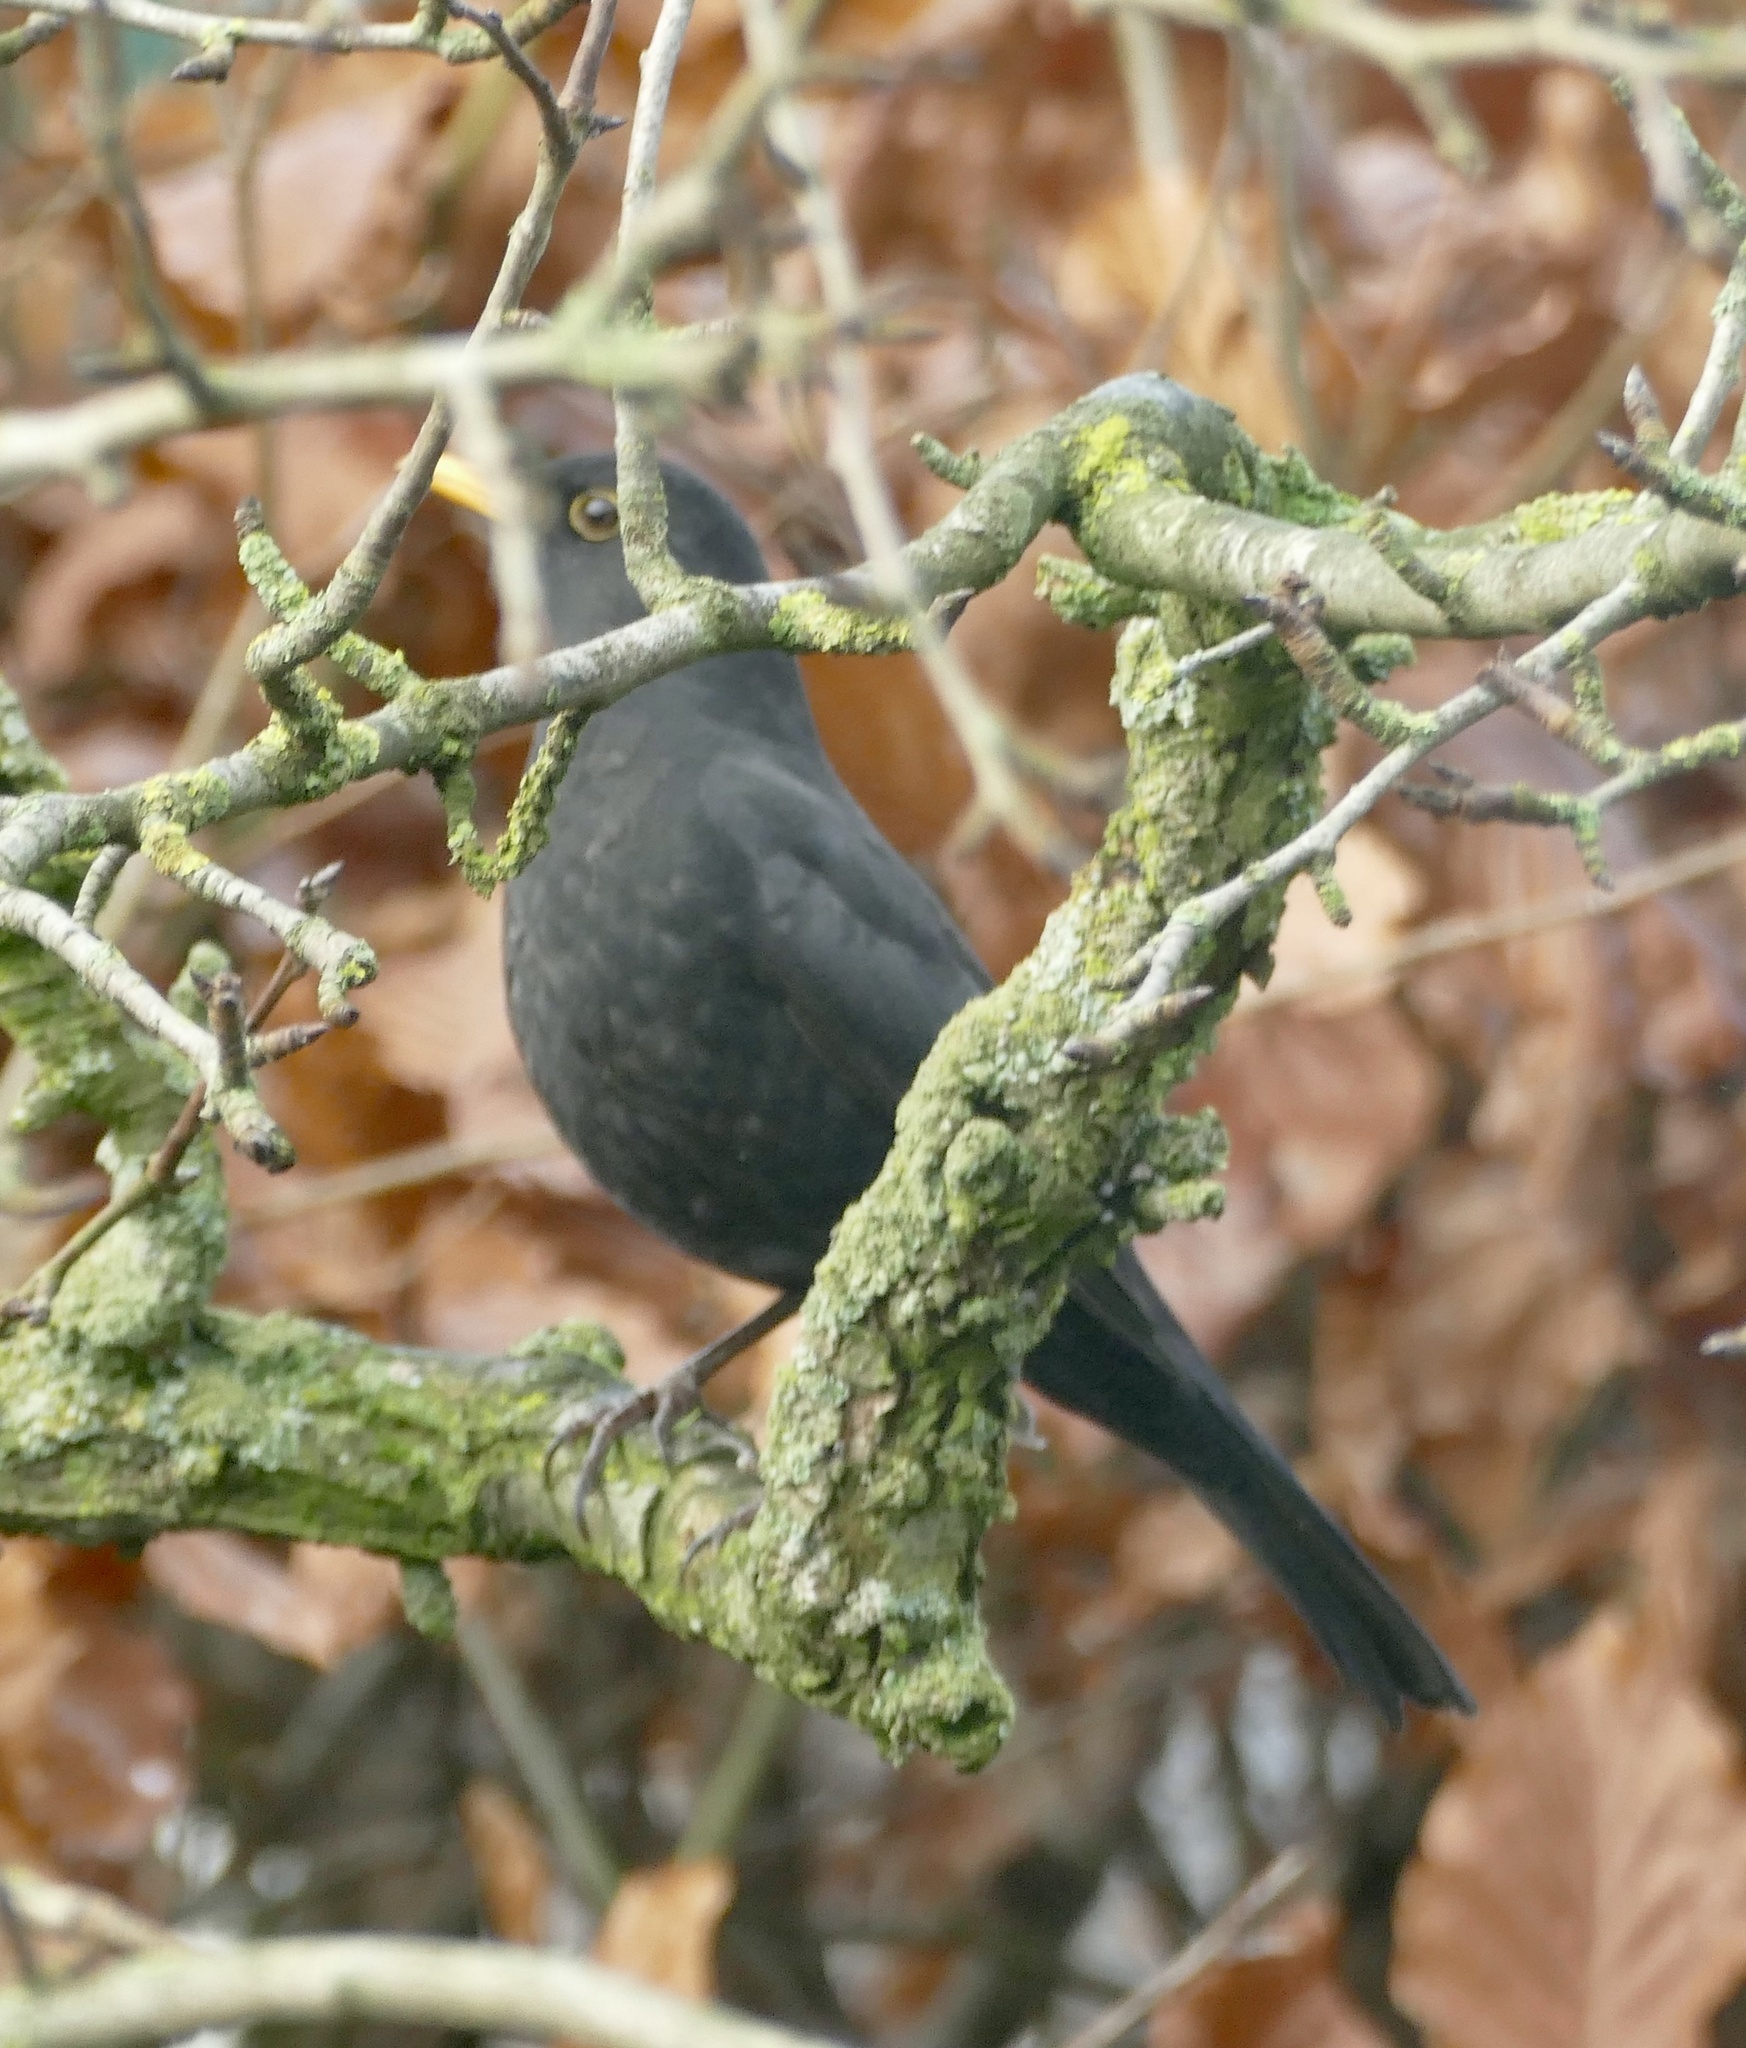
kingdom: Animalia
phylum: Chordata
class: Aves
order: Passeriformes
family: Turdidae
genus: Turdus
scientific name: Turdus merula
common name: Common blackbird
